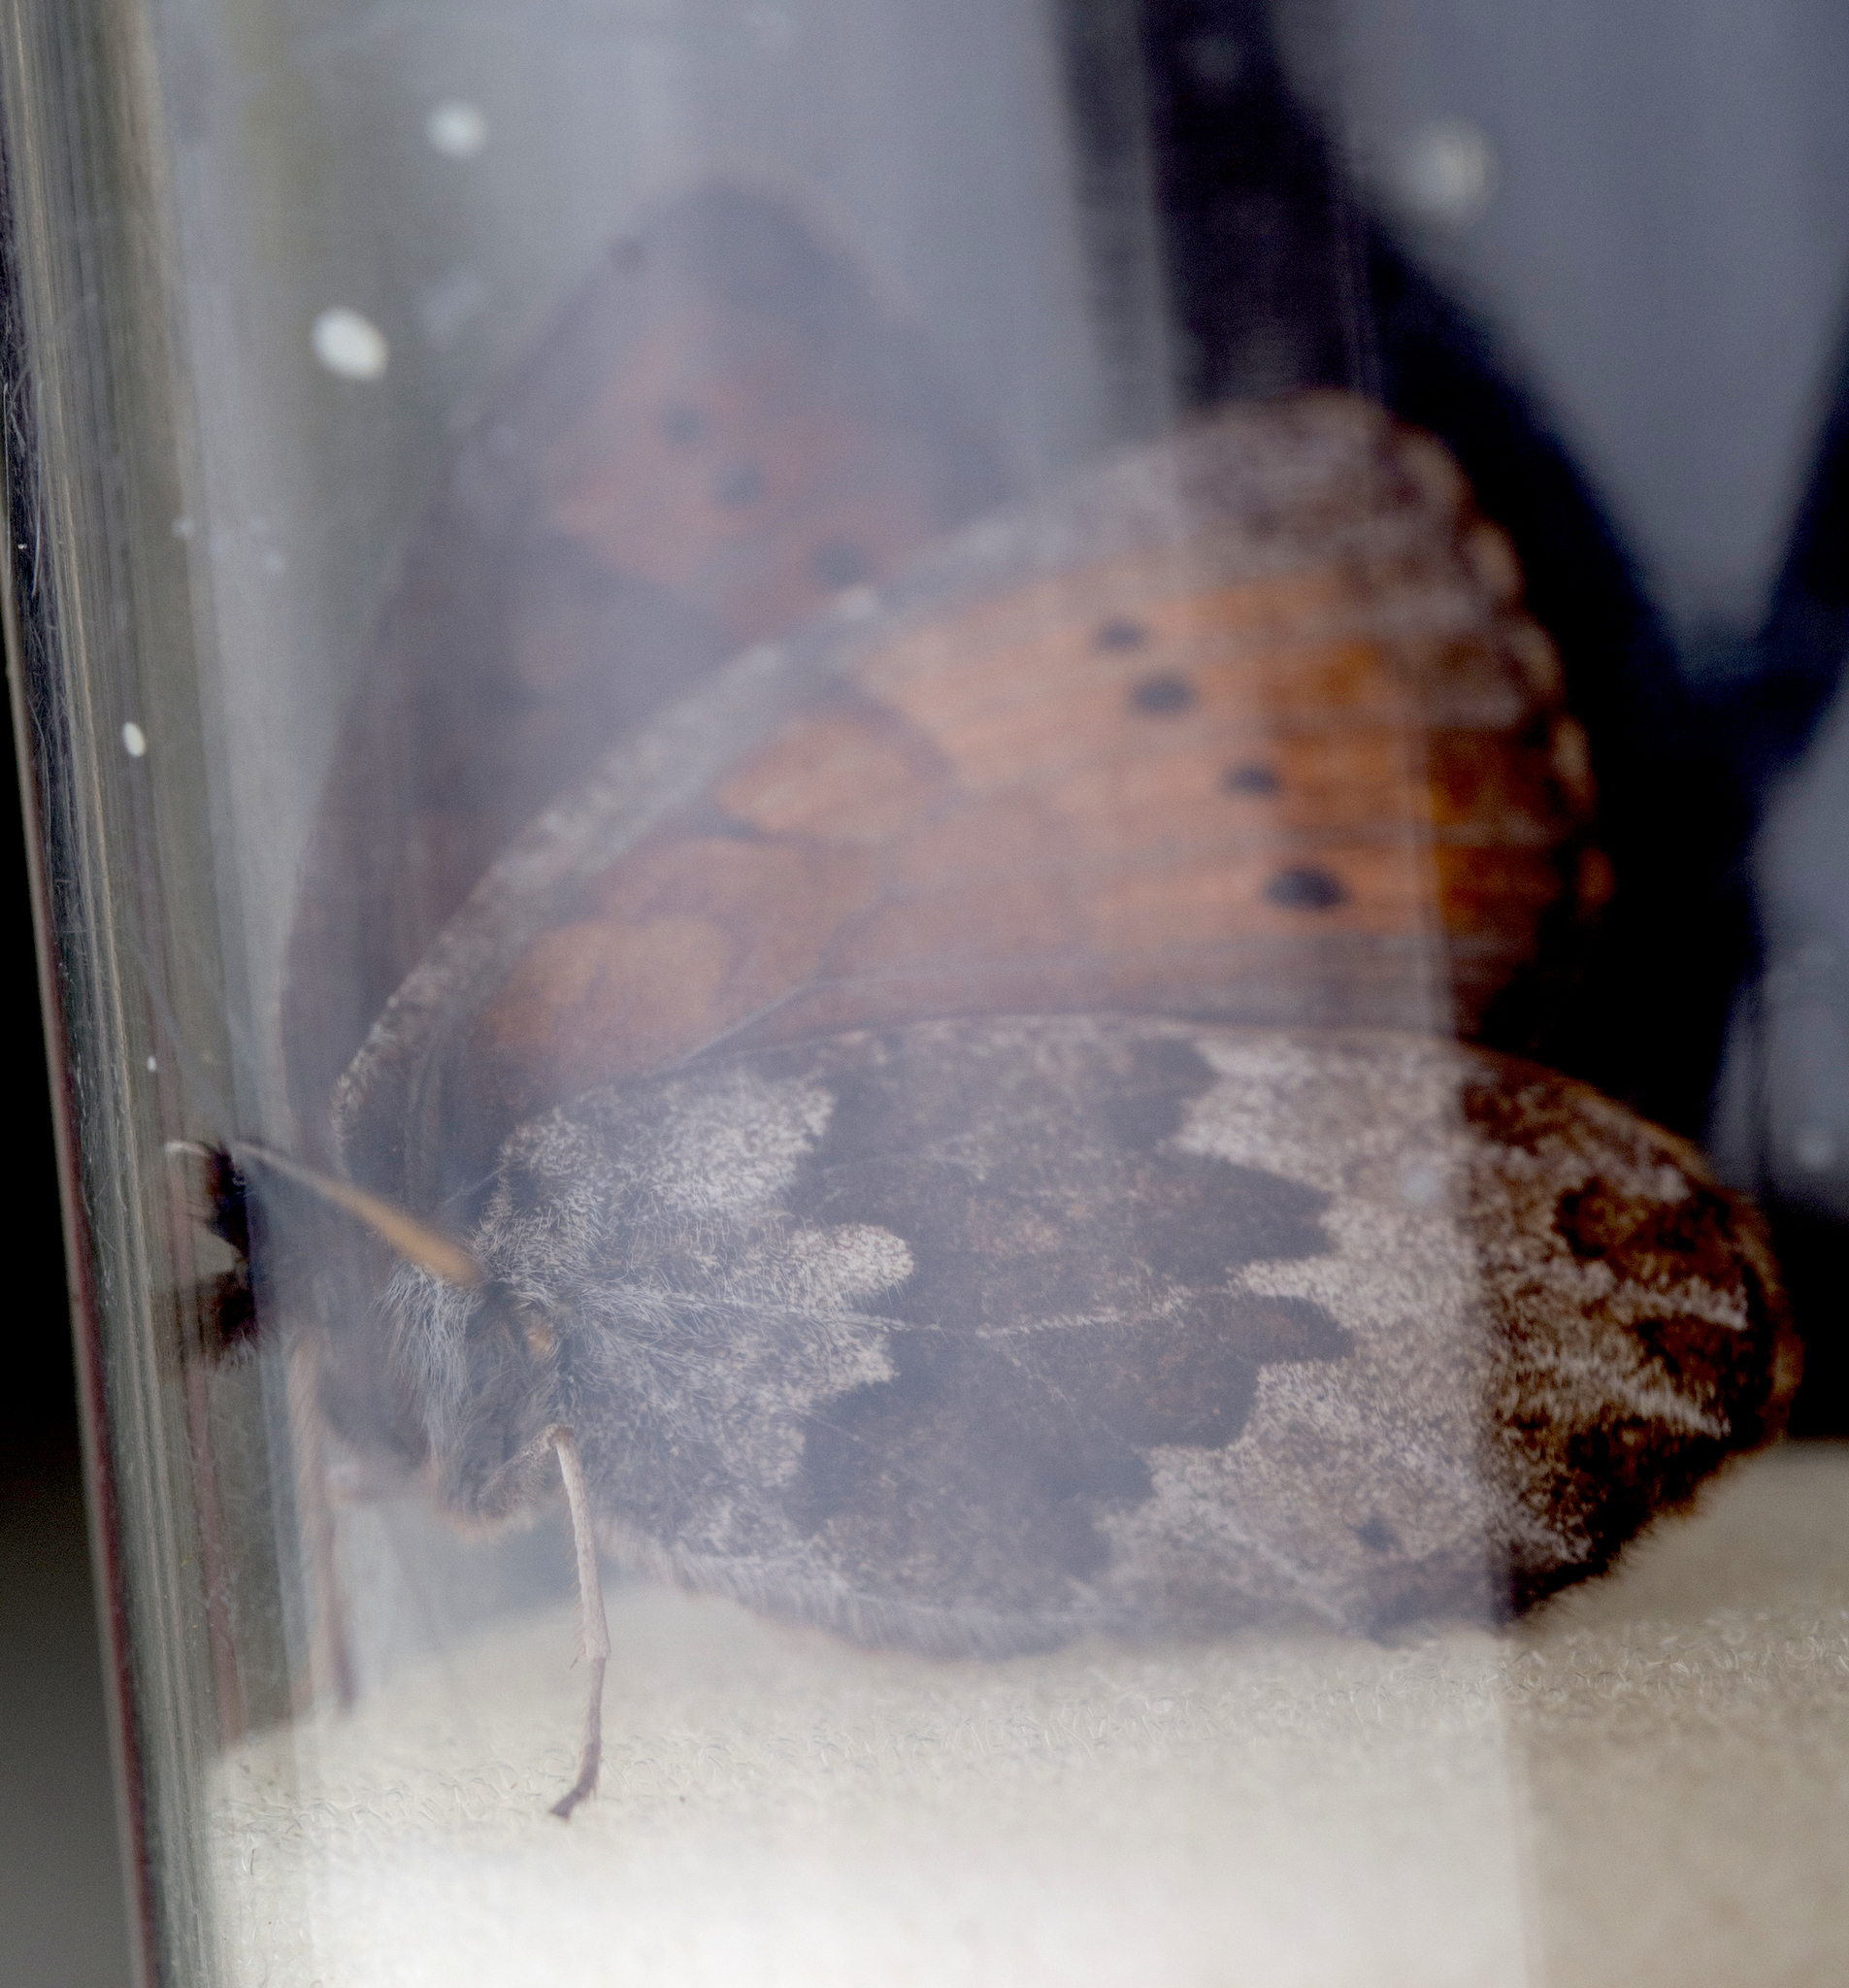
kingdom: Animalia
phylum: Arthropoda
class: Insecta
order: Lepidoptera
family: Nymphalidae
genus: Erebia
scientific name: Erebia pandrose
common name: Dewy ringlet
